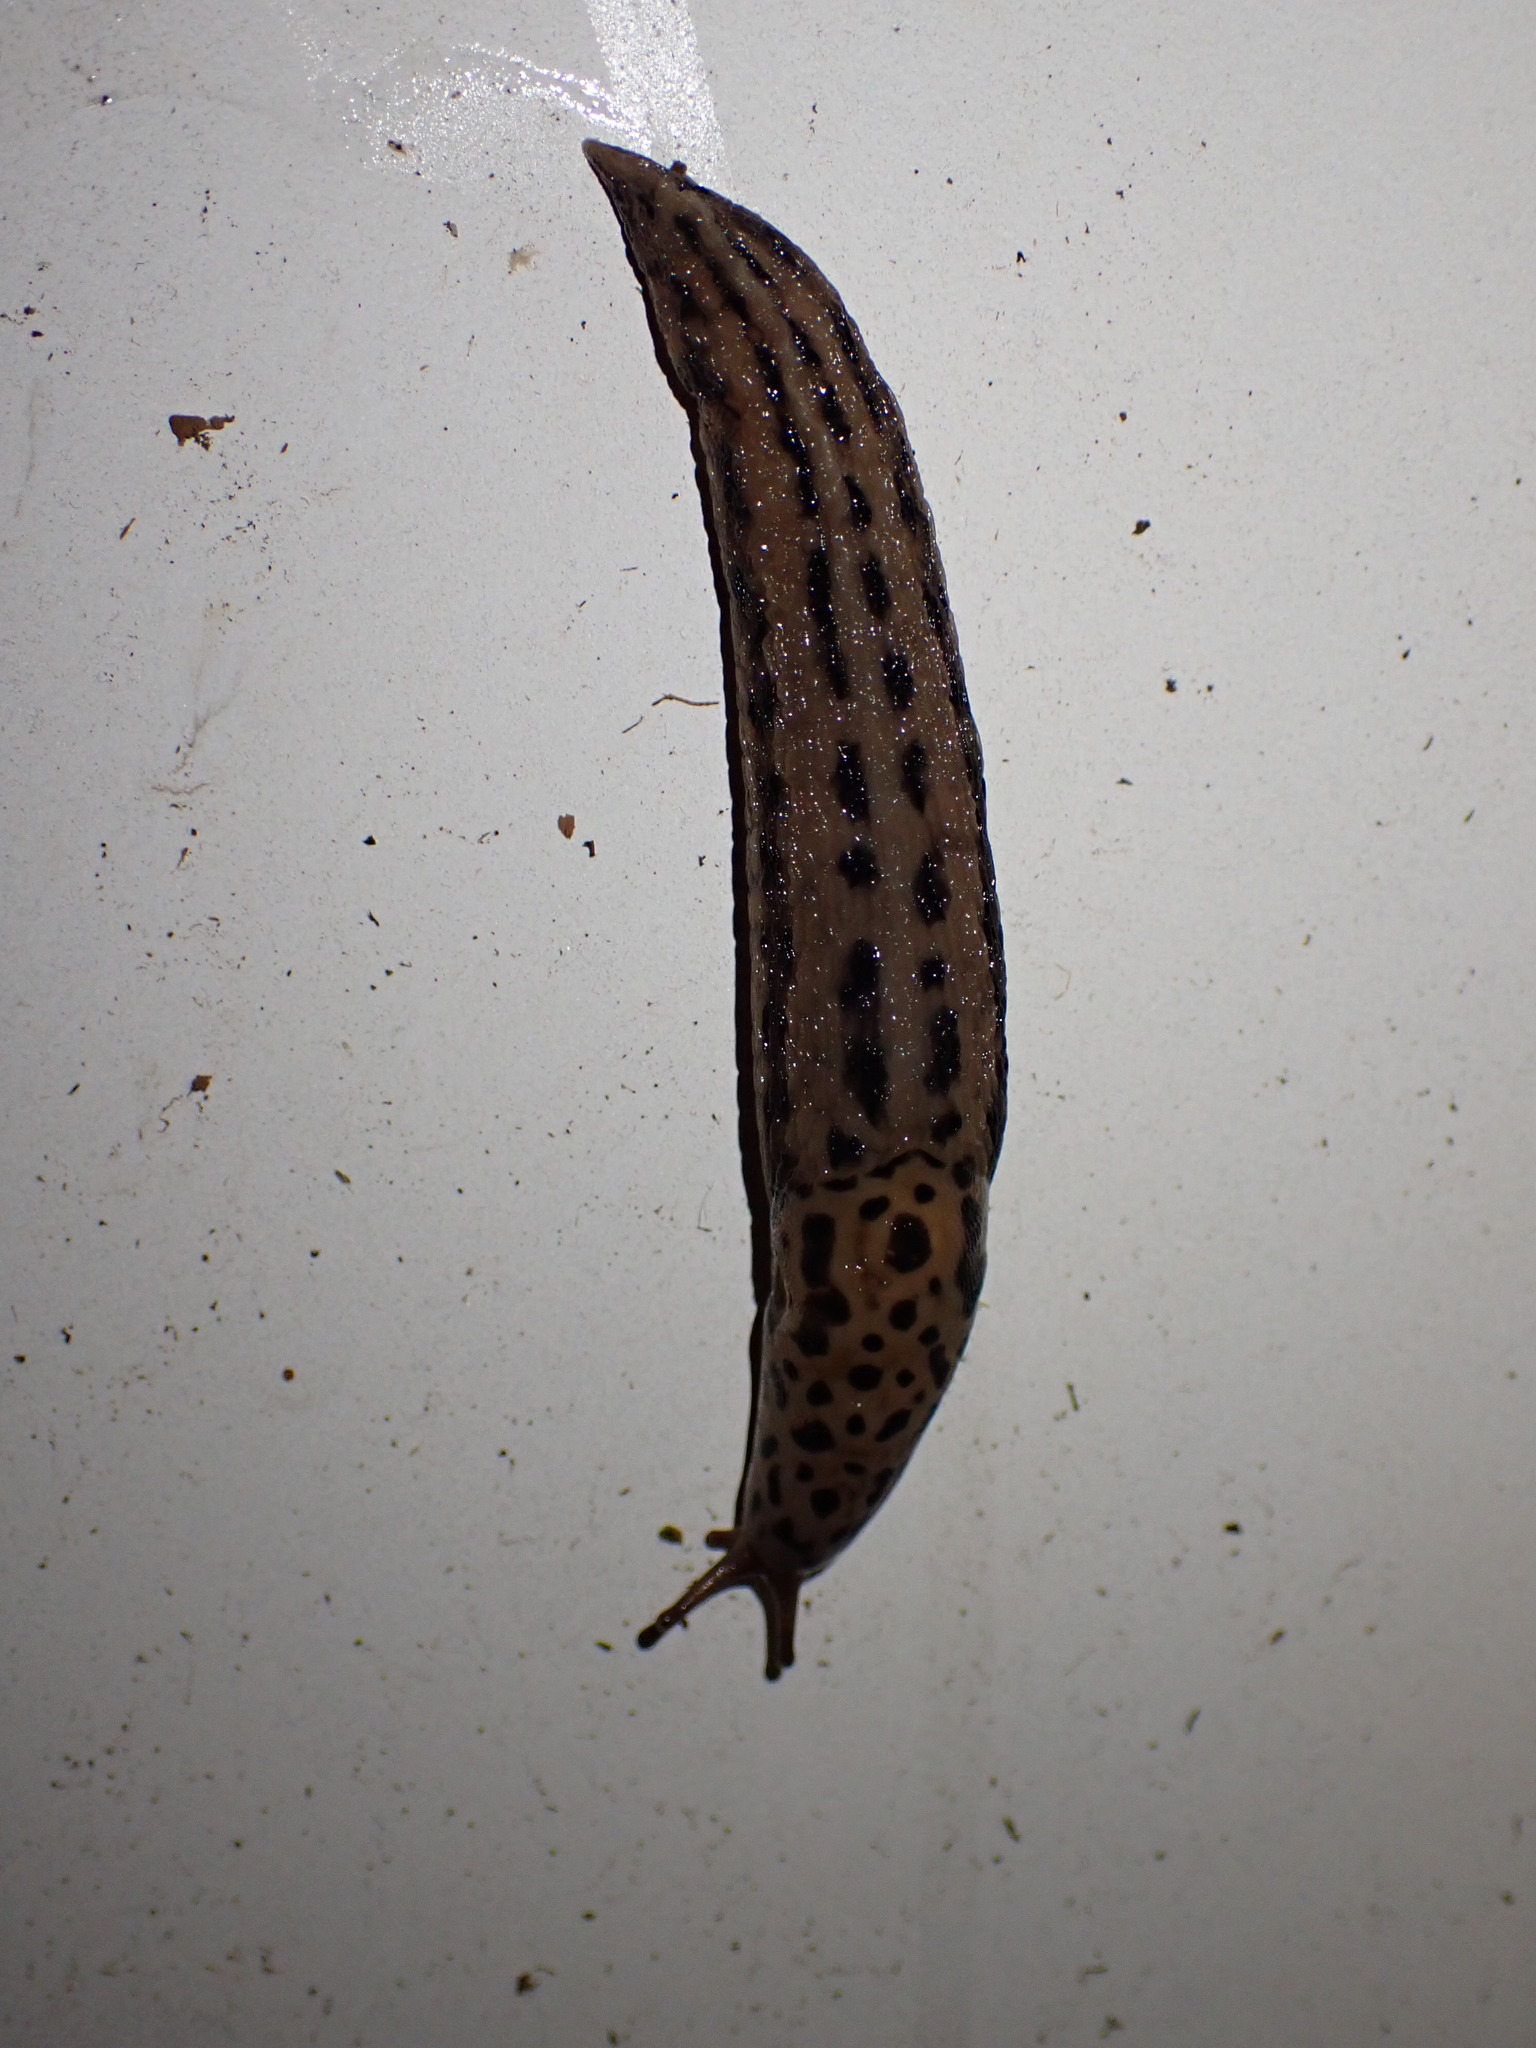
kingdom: Animalia
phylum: Mollusca
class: Gastropoda
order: Stylommatophora
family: Limacidae
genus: Limax
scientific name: Limax maximus
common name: Great grey slug
